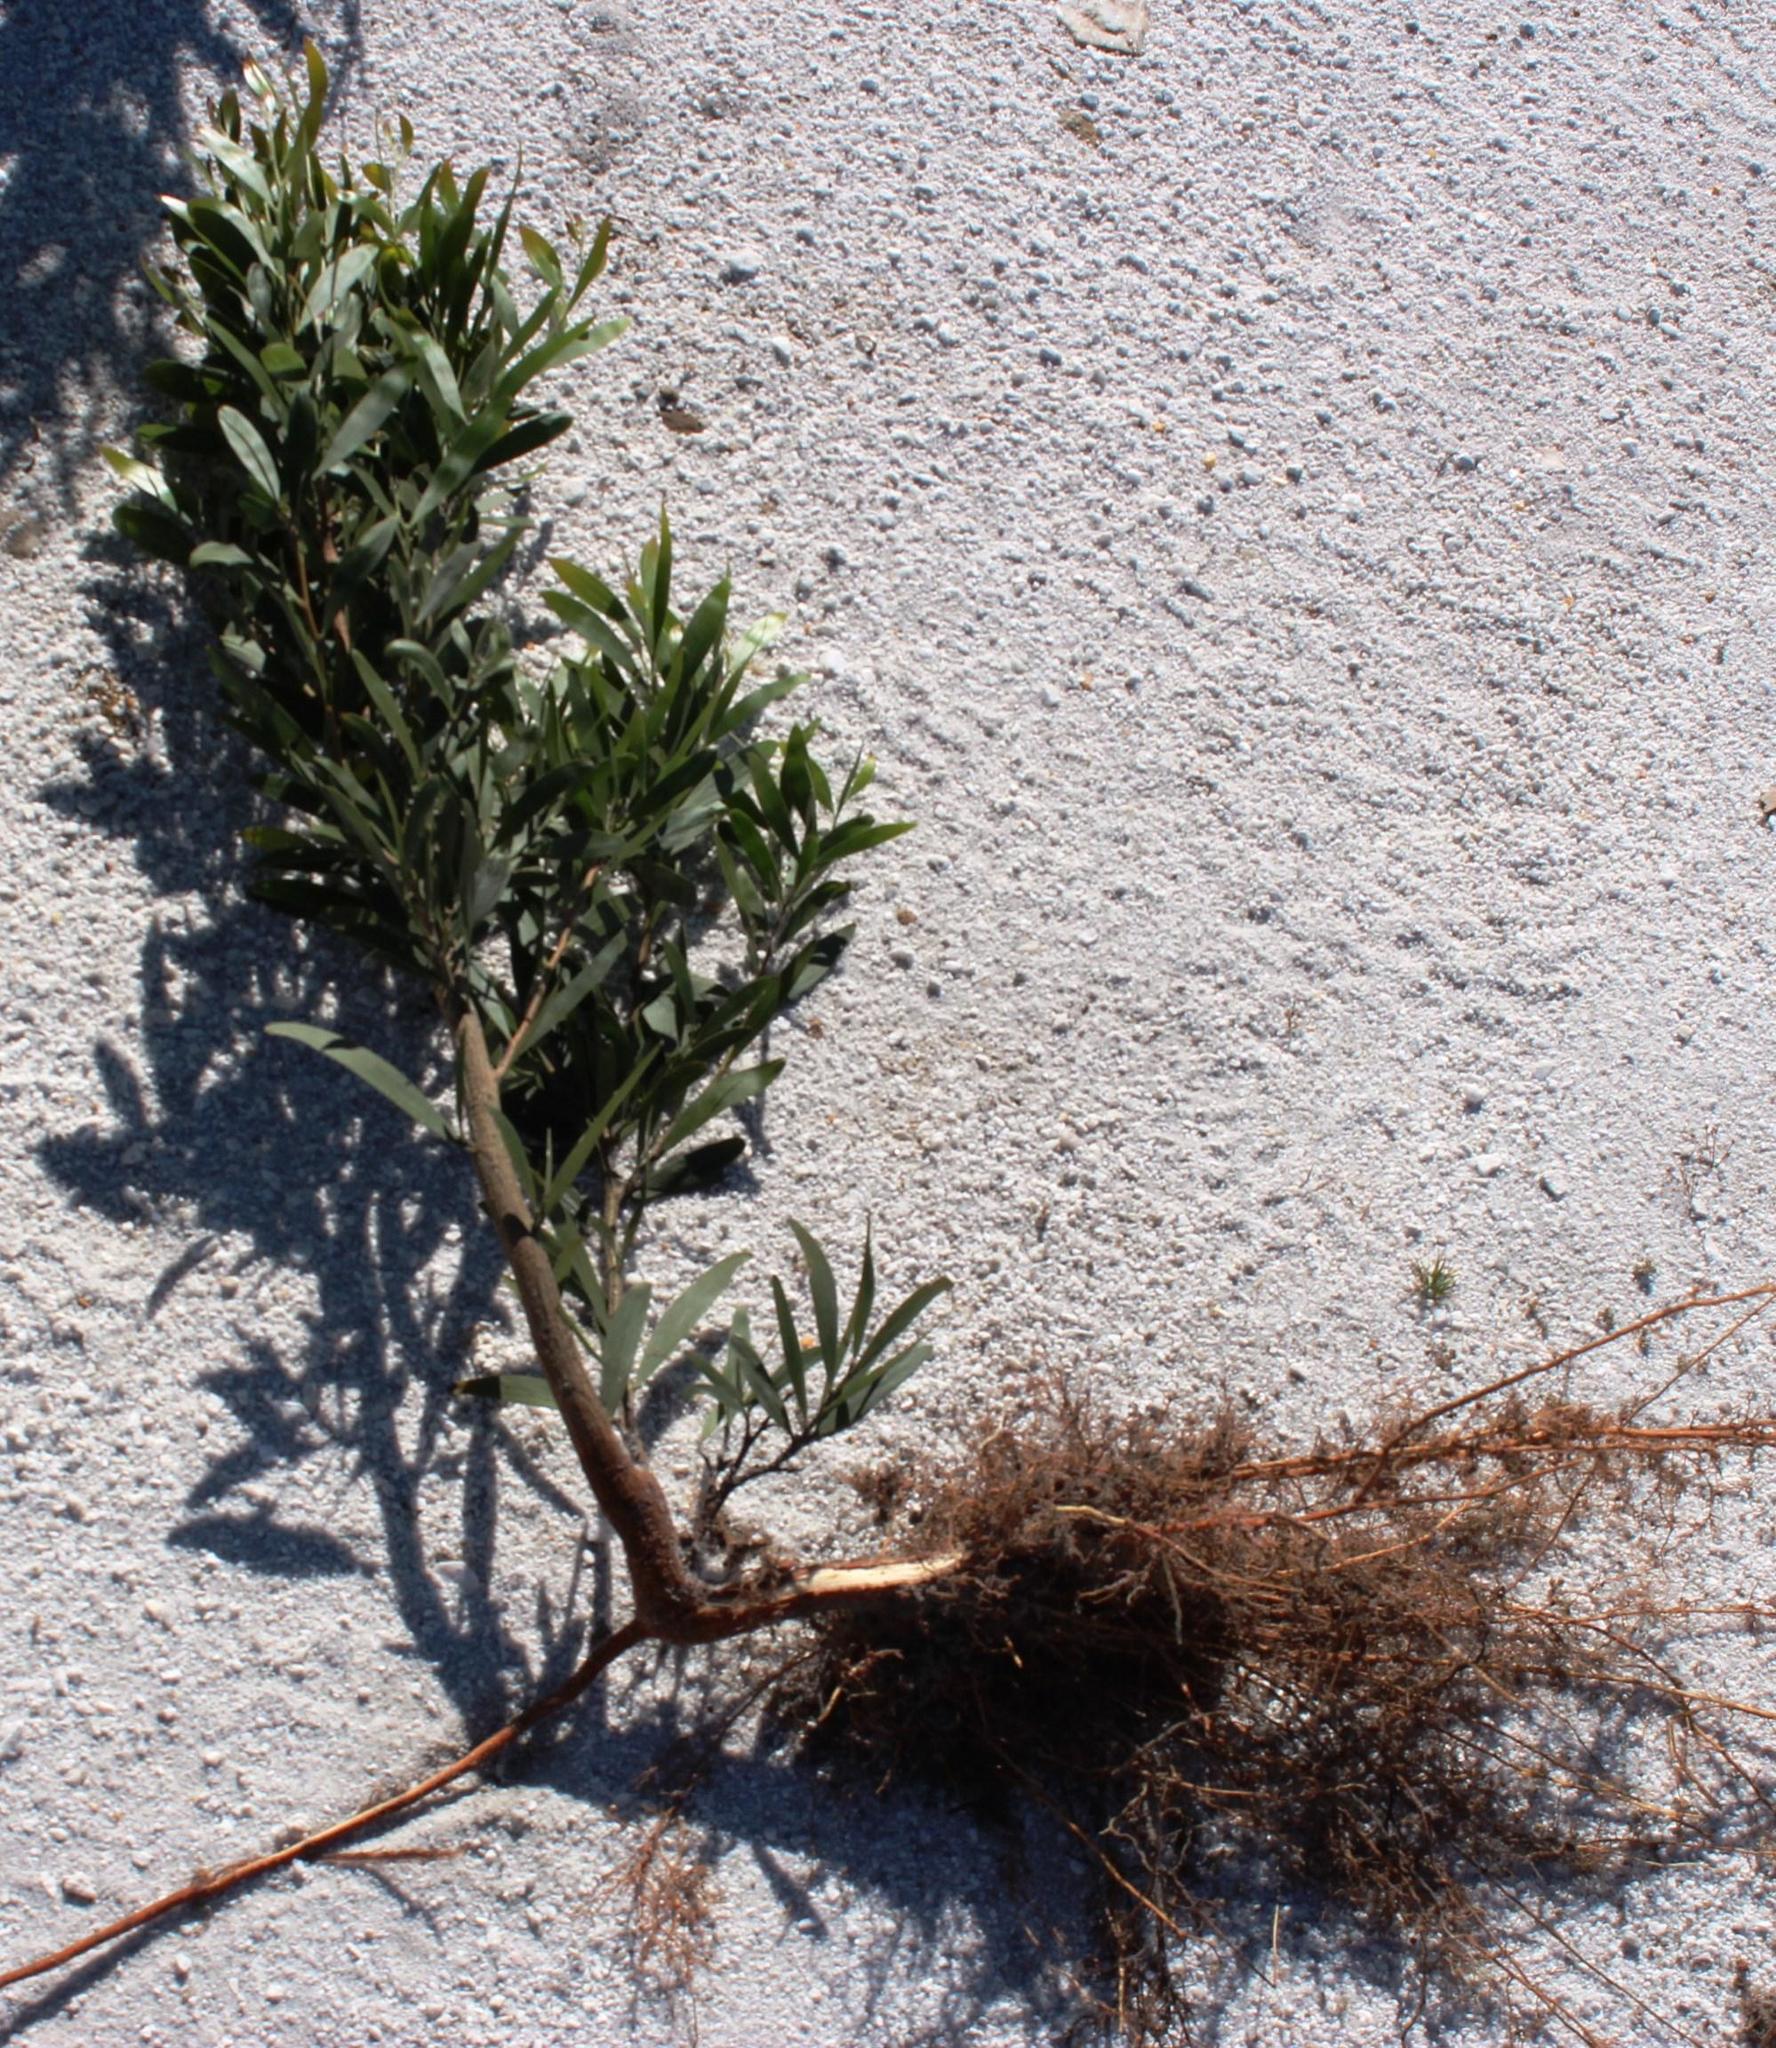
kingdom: Plantae
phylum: Tracheophyta
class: Magnoliopsida
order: Fabales
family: Fabaceae
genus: Acacia
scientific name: Acacia melanoxylon
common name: Blackwood
